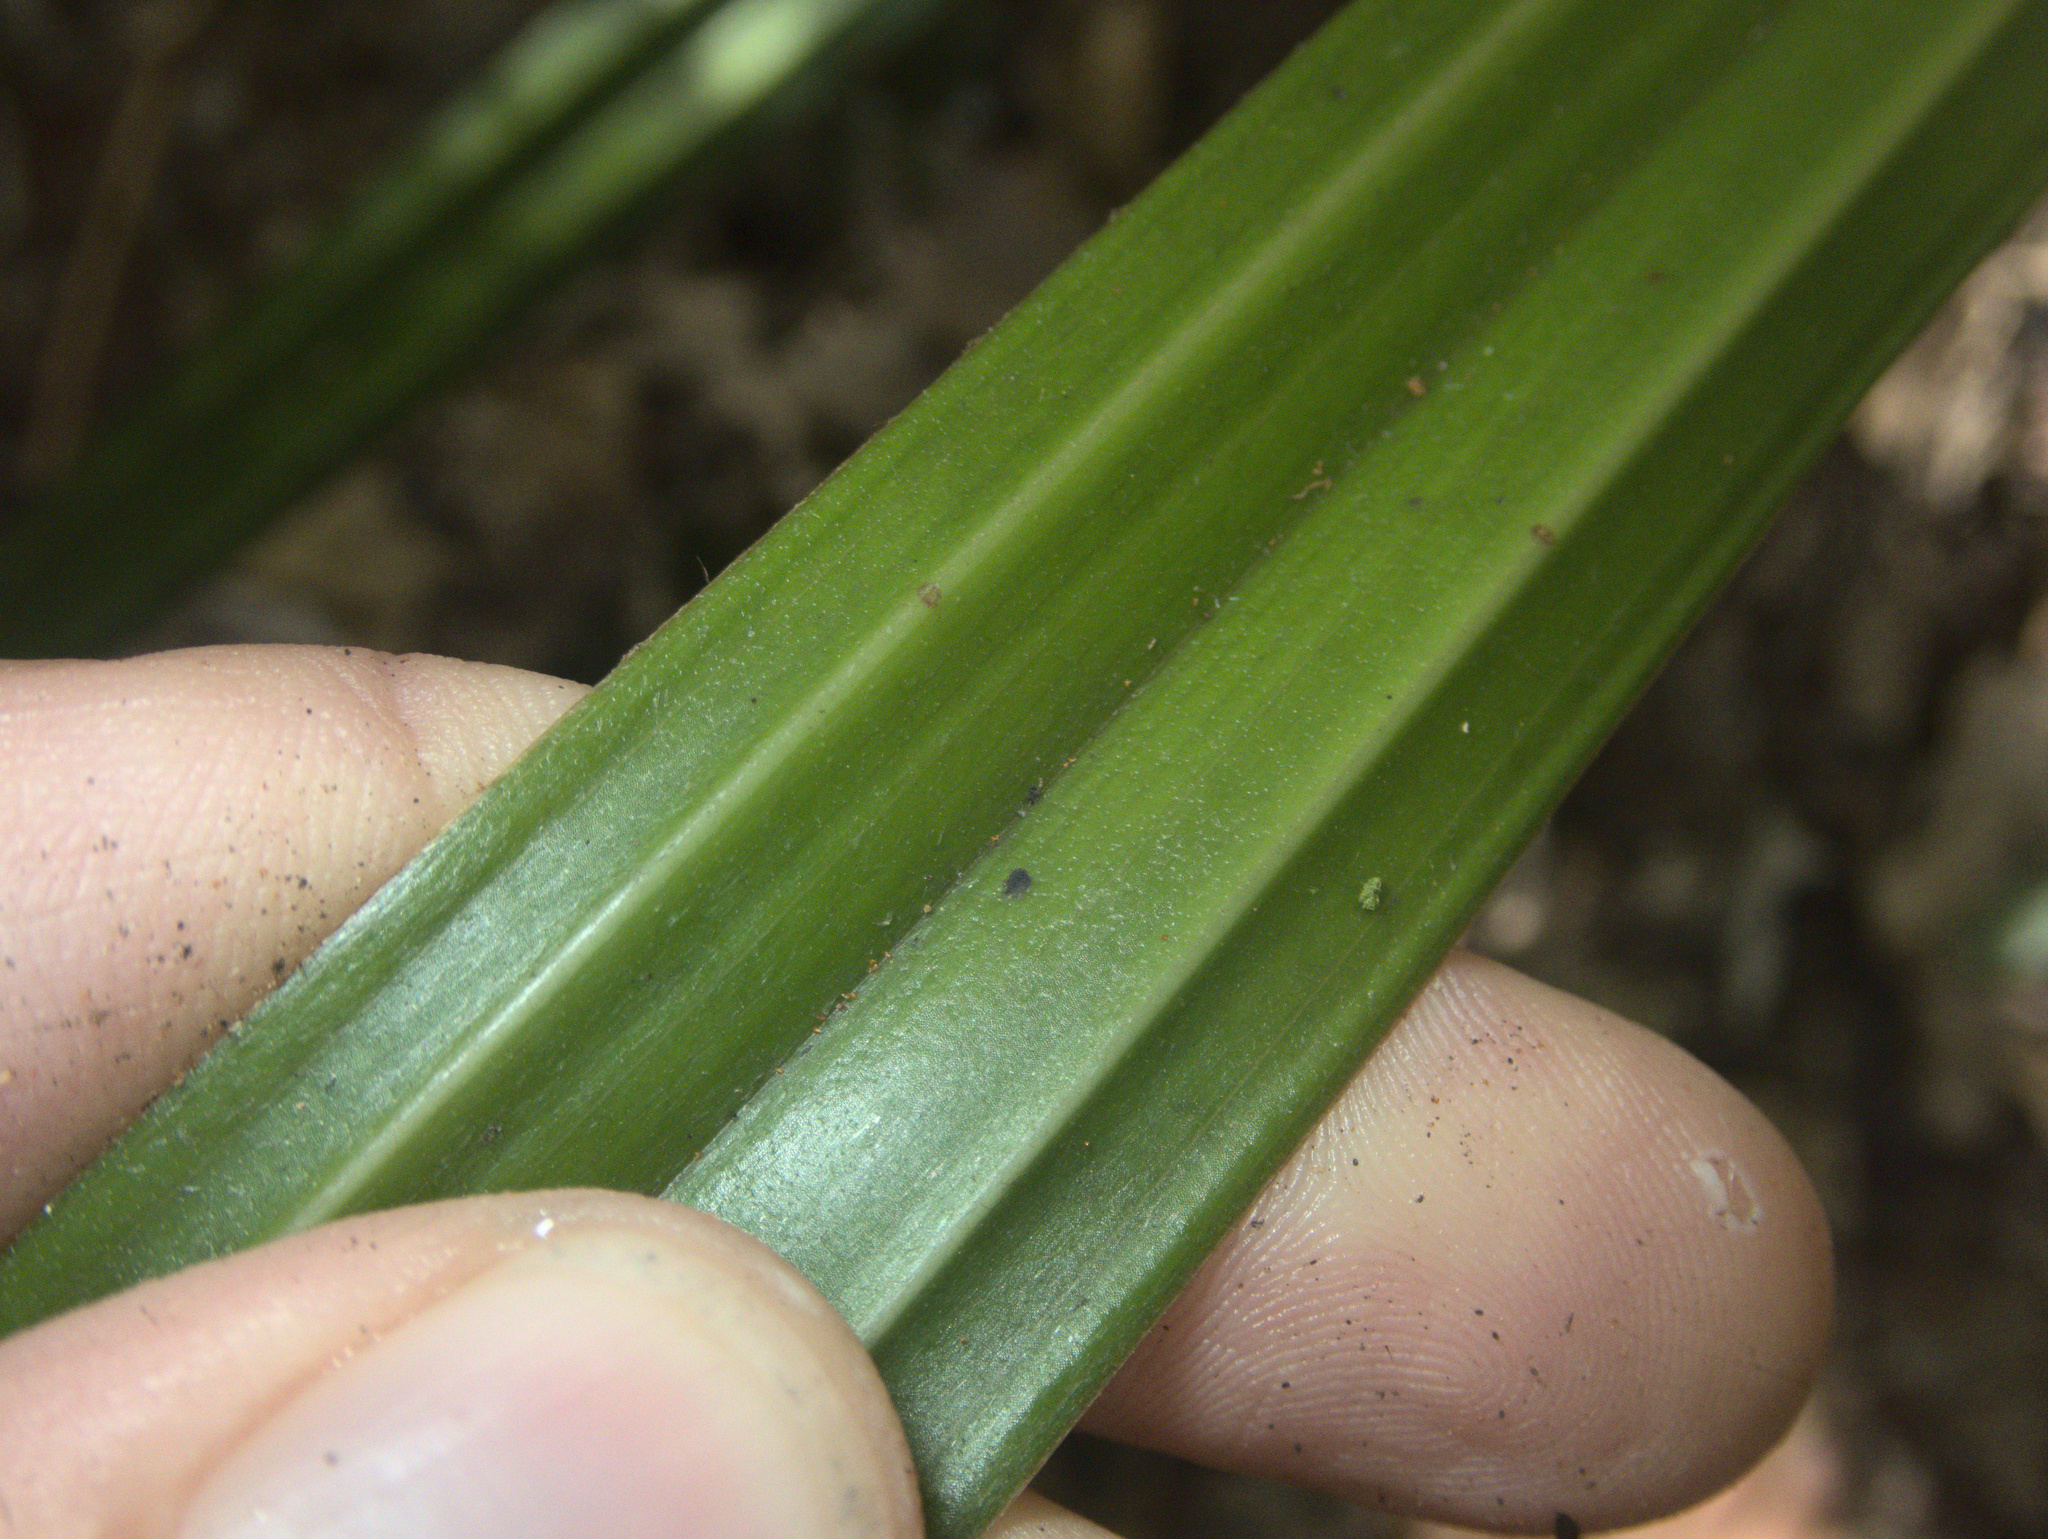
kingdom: Plantae
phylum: Tracheophyta
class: Liliopsida
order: Asparagales
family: Asteliaceae
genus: Astelia
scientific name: Astelia trinervia
